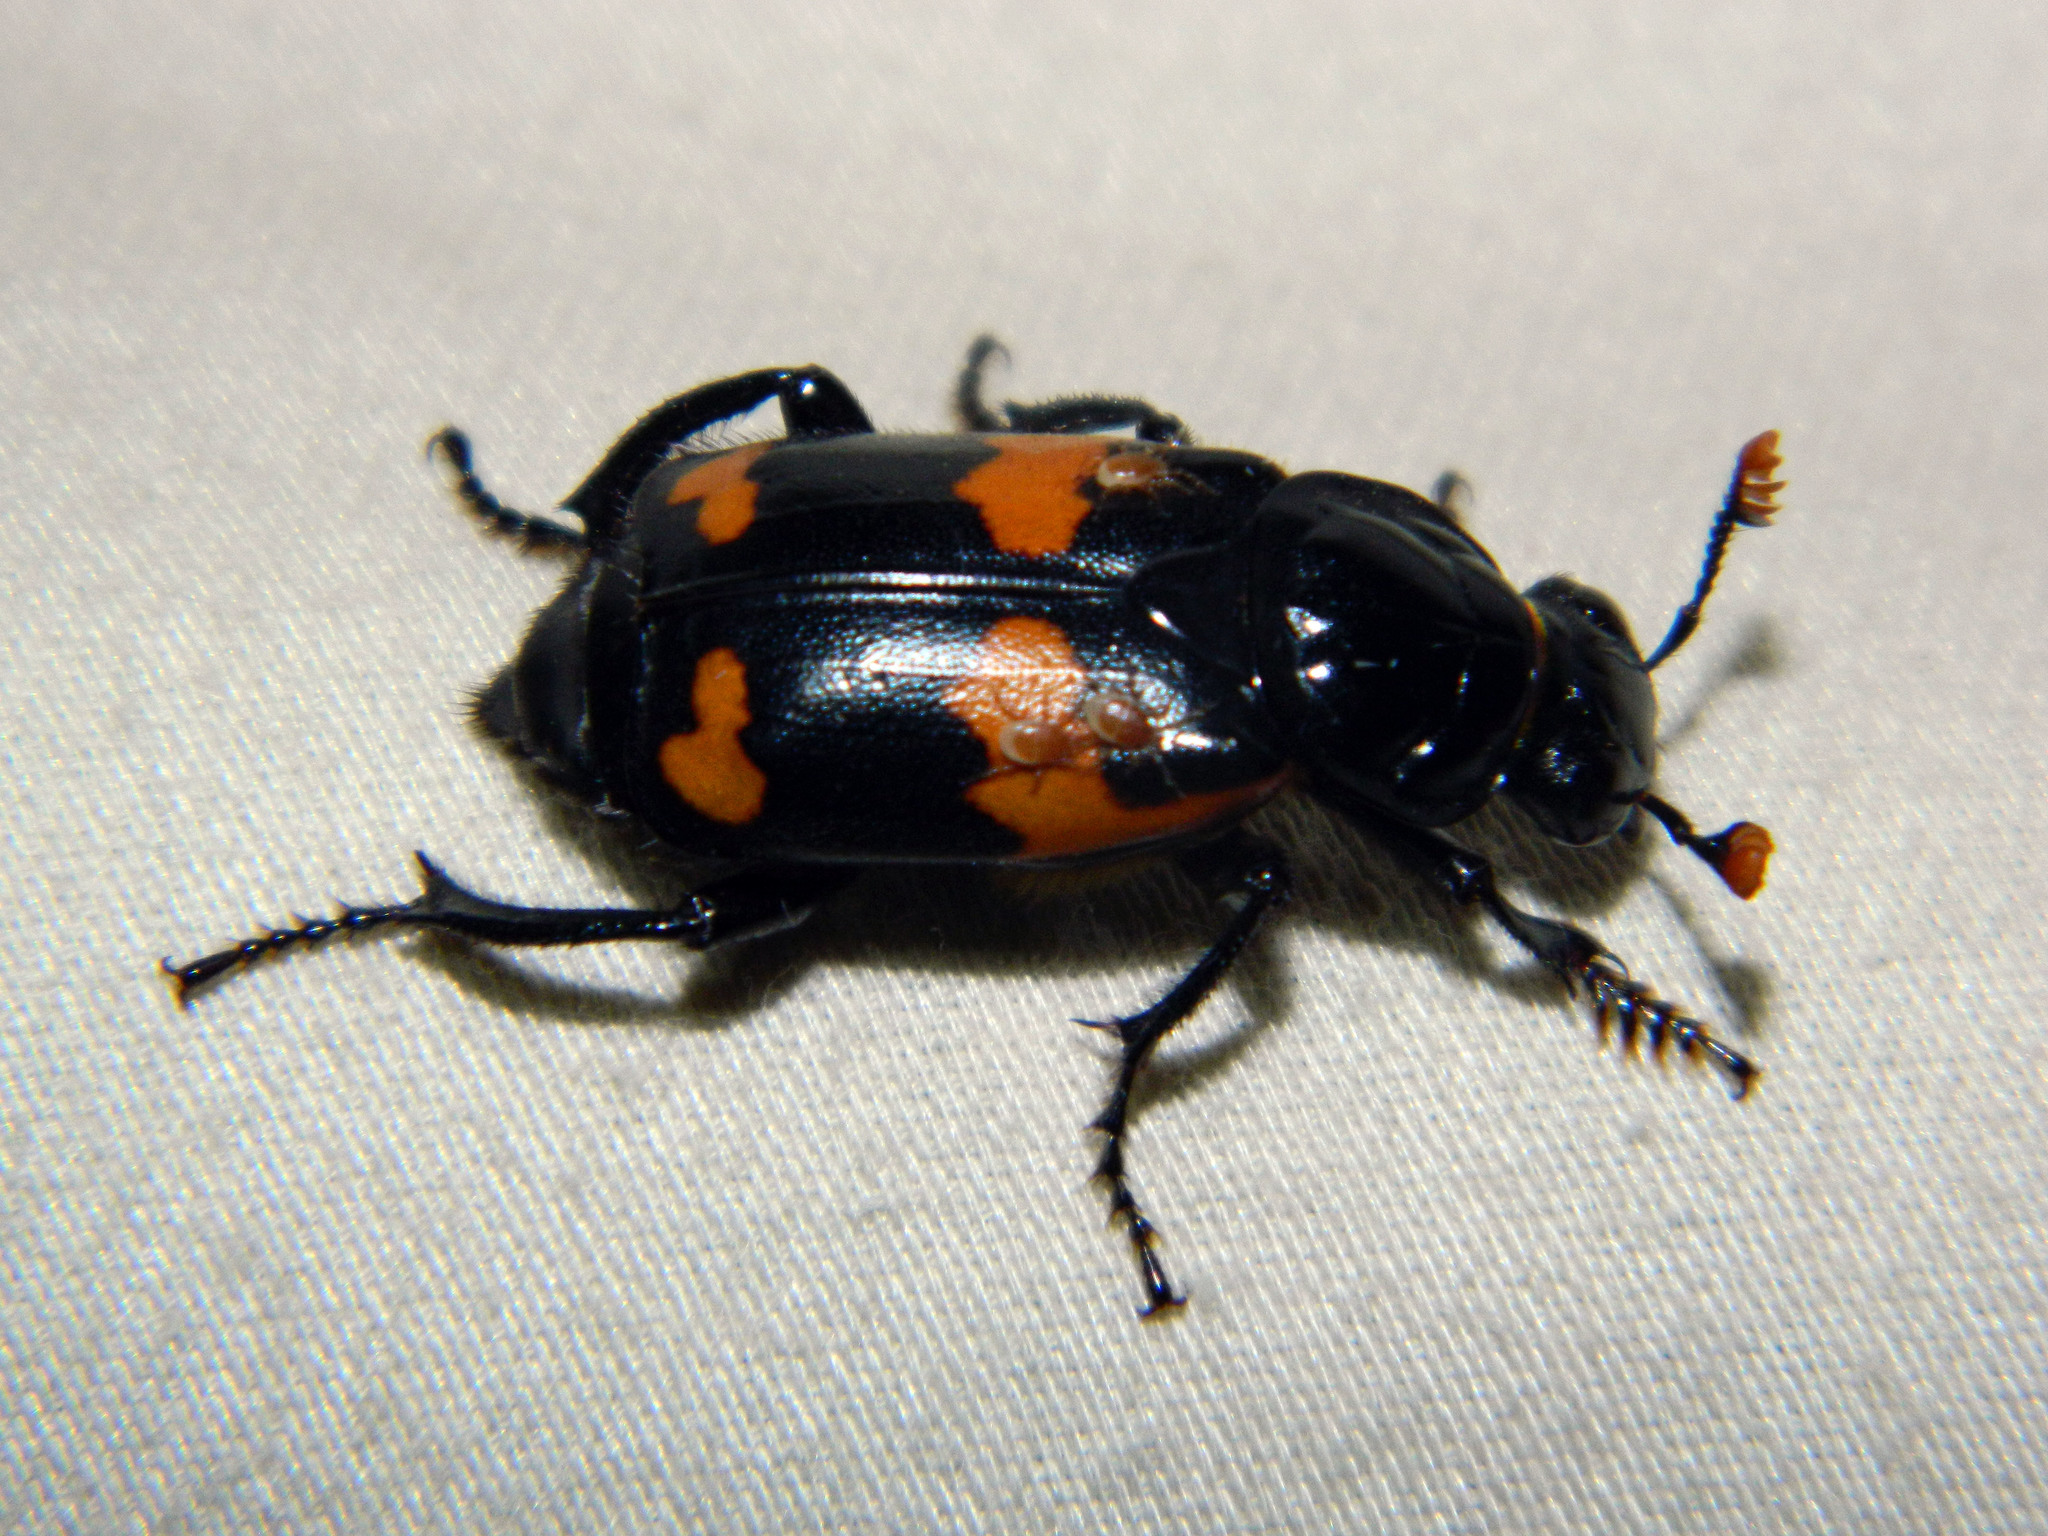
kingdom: Animalia
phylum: Arthropoda
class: Insecta
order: Coleoptera
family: Staphylinidae
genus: Nicrophorus
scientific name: Nicrophorus sayi
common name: Say's burying beetle
